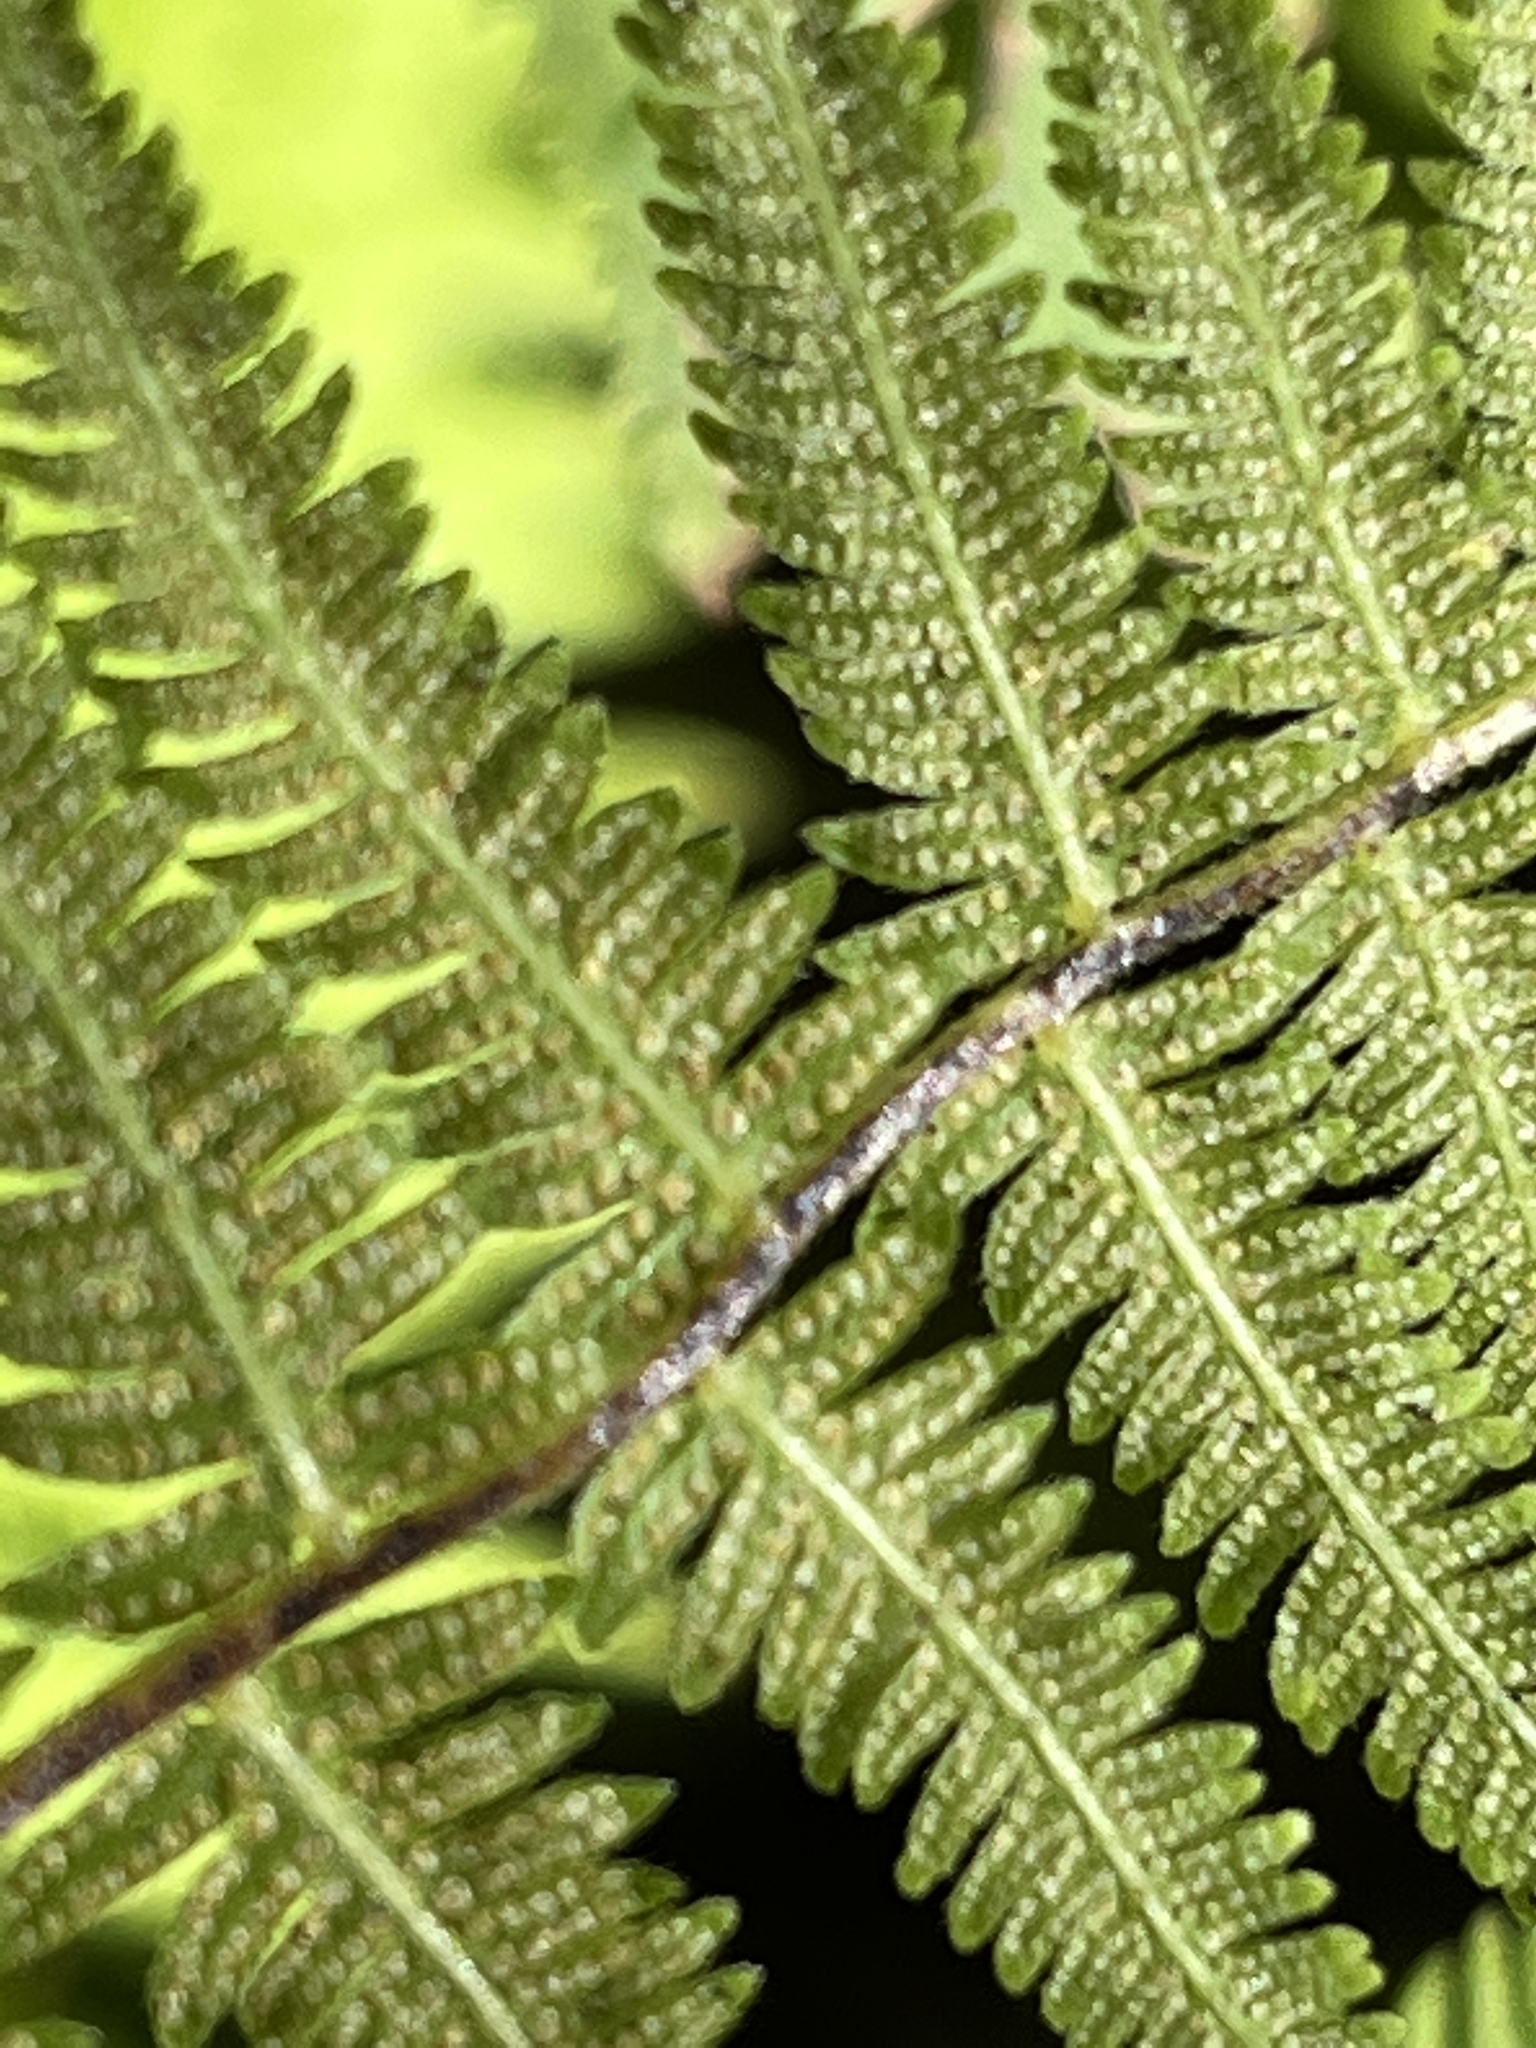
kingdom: Plantae
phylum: Tracheophyta
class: Polypodiopsida
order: Polypodiales
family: Thelypteridaceae
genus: Amauropelta
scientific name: Amauropelta noveboracensis
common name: New york fern
